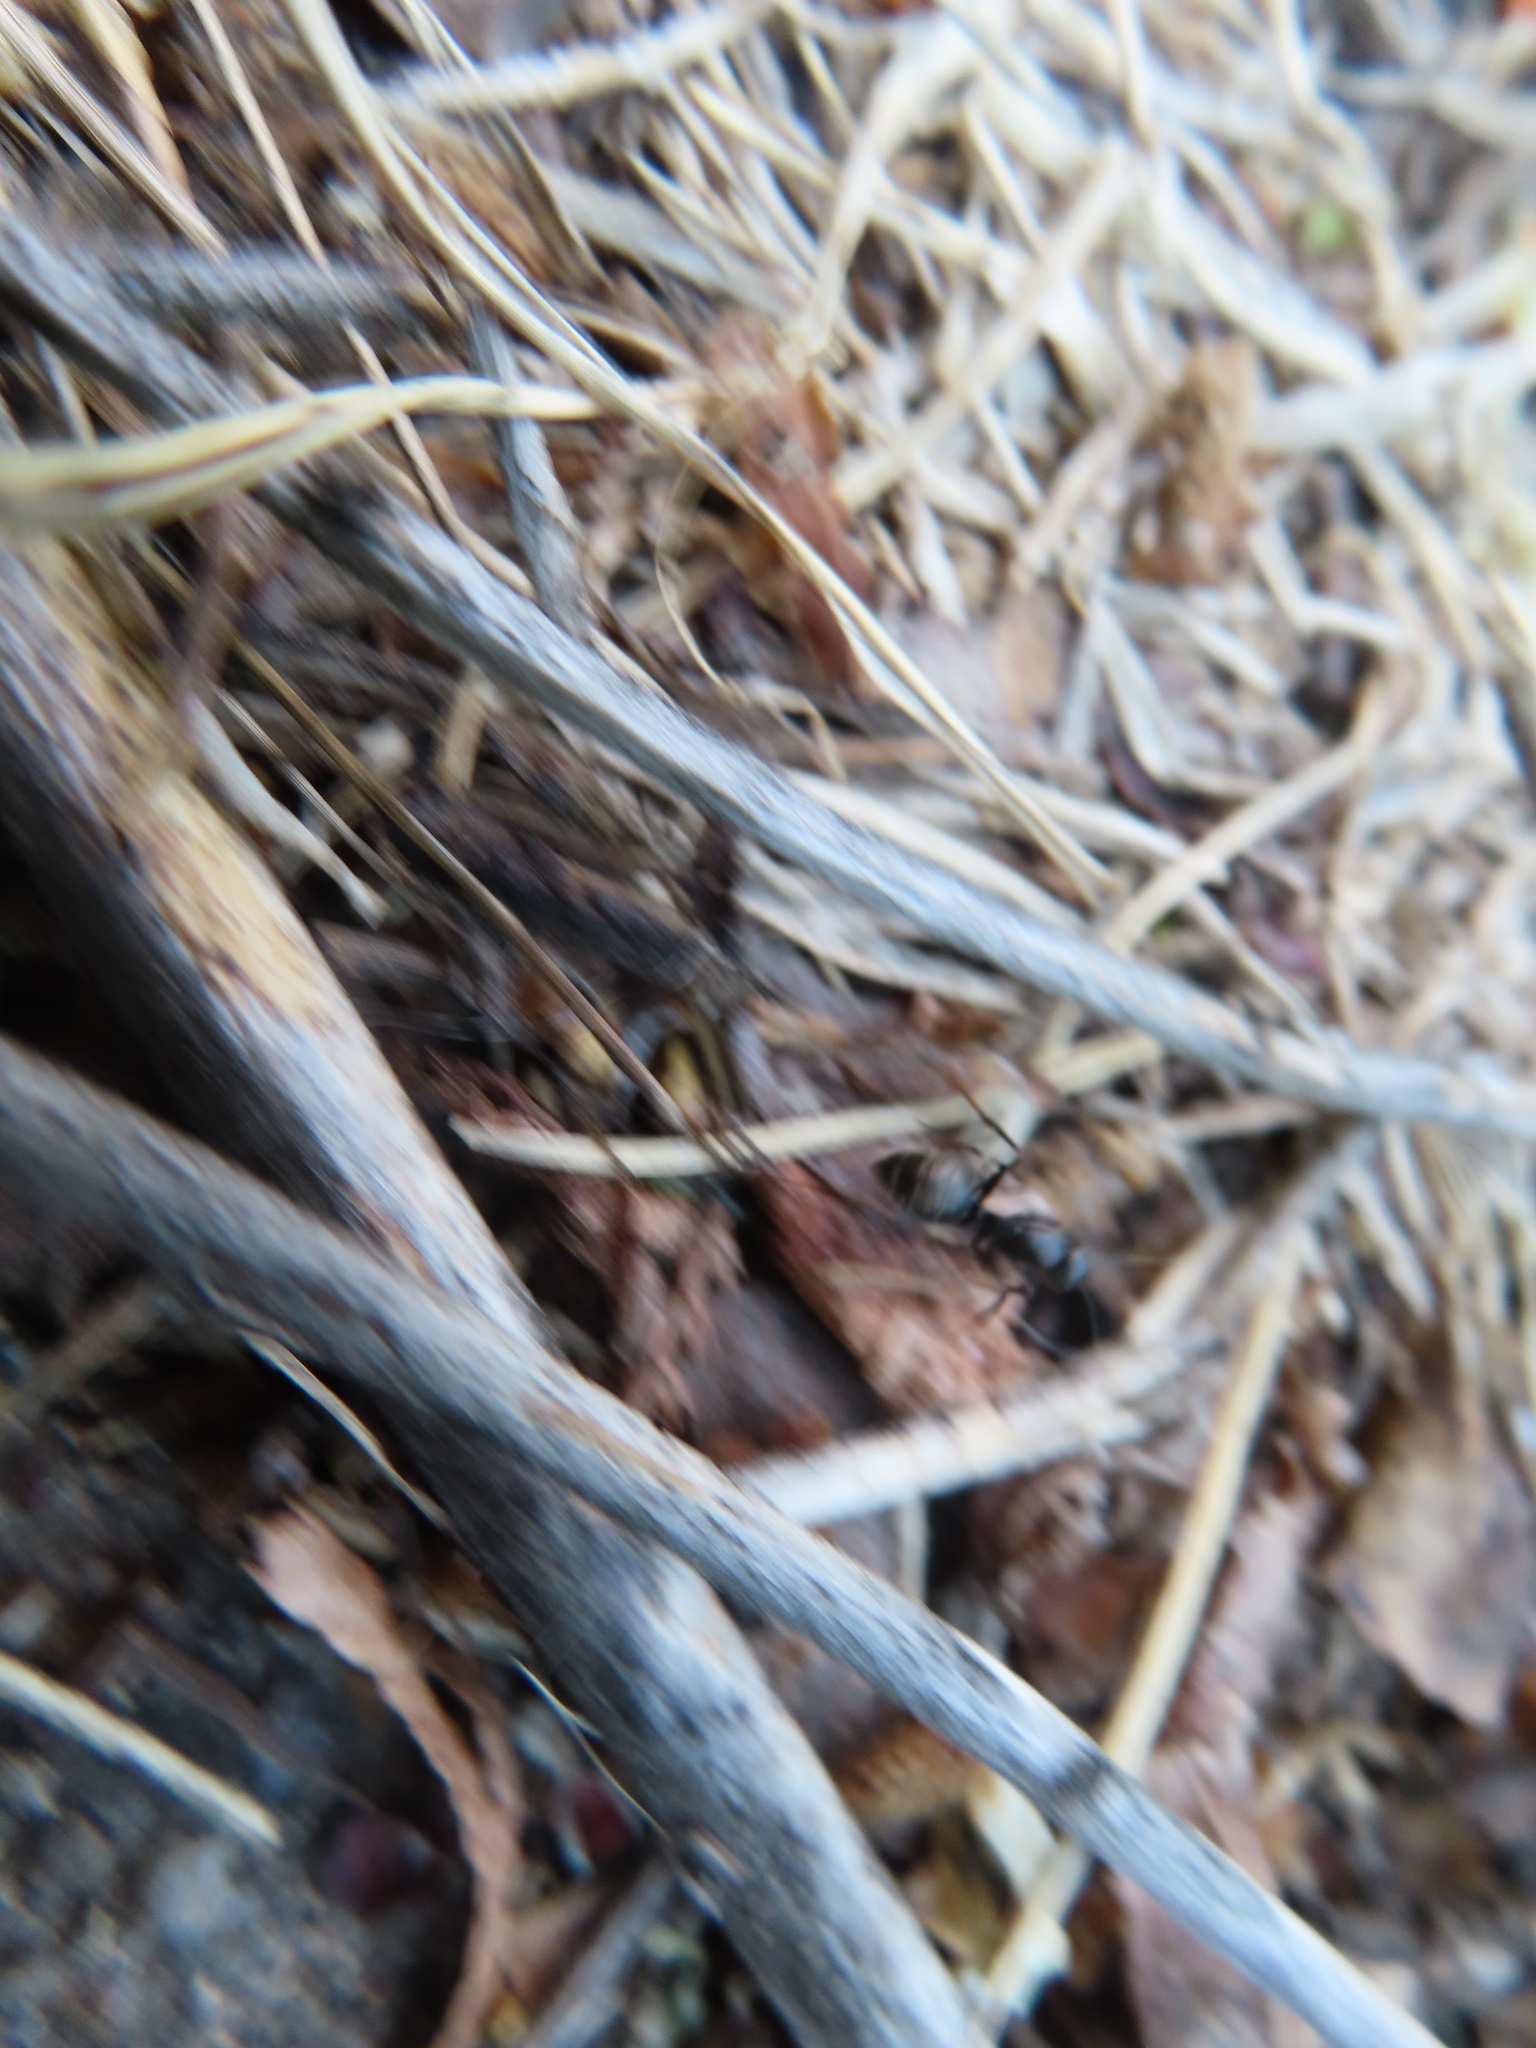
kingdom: Animalia
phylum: Arthropoda
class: Insecta
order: Hymenoptera
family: Formicidae
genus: Camponotus
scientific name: Camponotus pennsylvanicus
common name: Black carpenter ant
